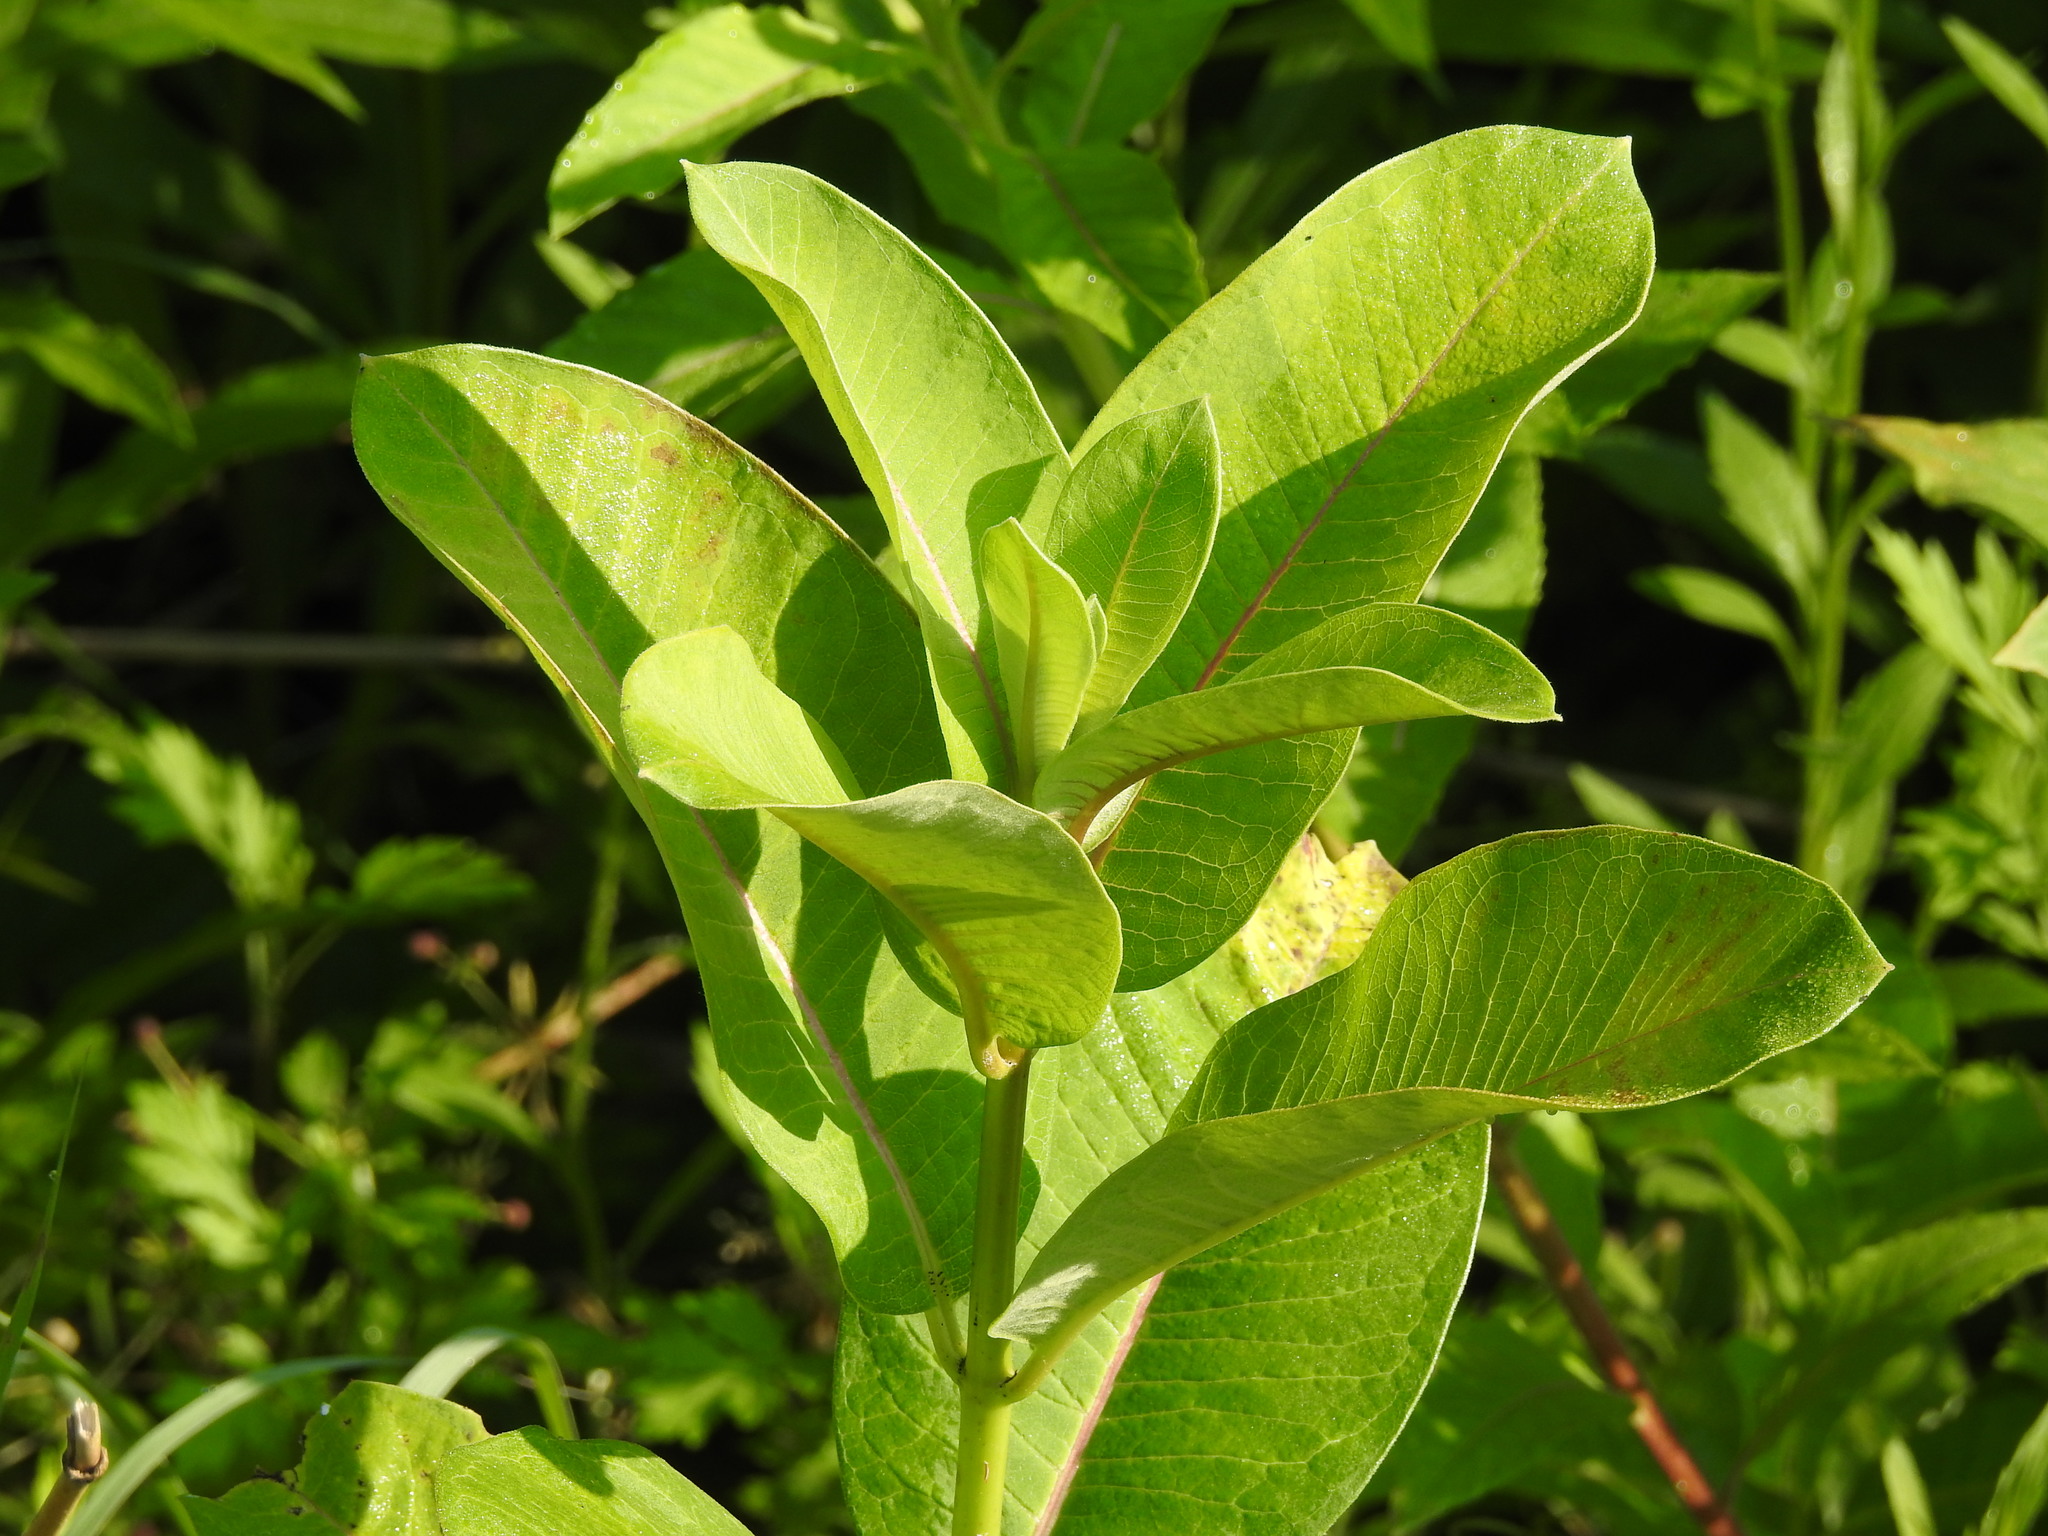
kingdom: Plantae
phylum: Tracheophyta
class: Magnoliopsida
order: Gentianales
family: Apocynaceae
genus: Asclepias
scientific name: Asclepias syriaca
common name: Common milkweed
